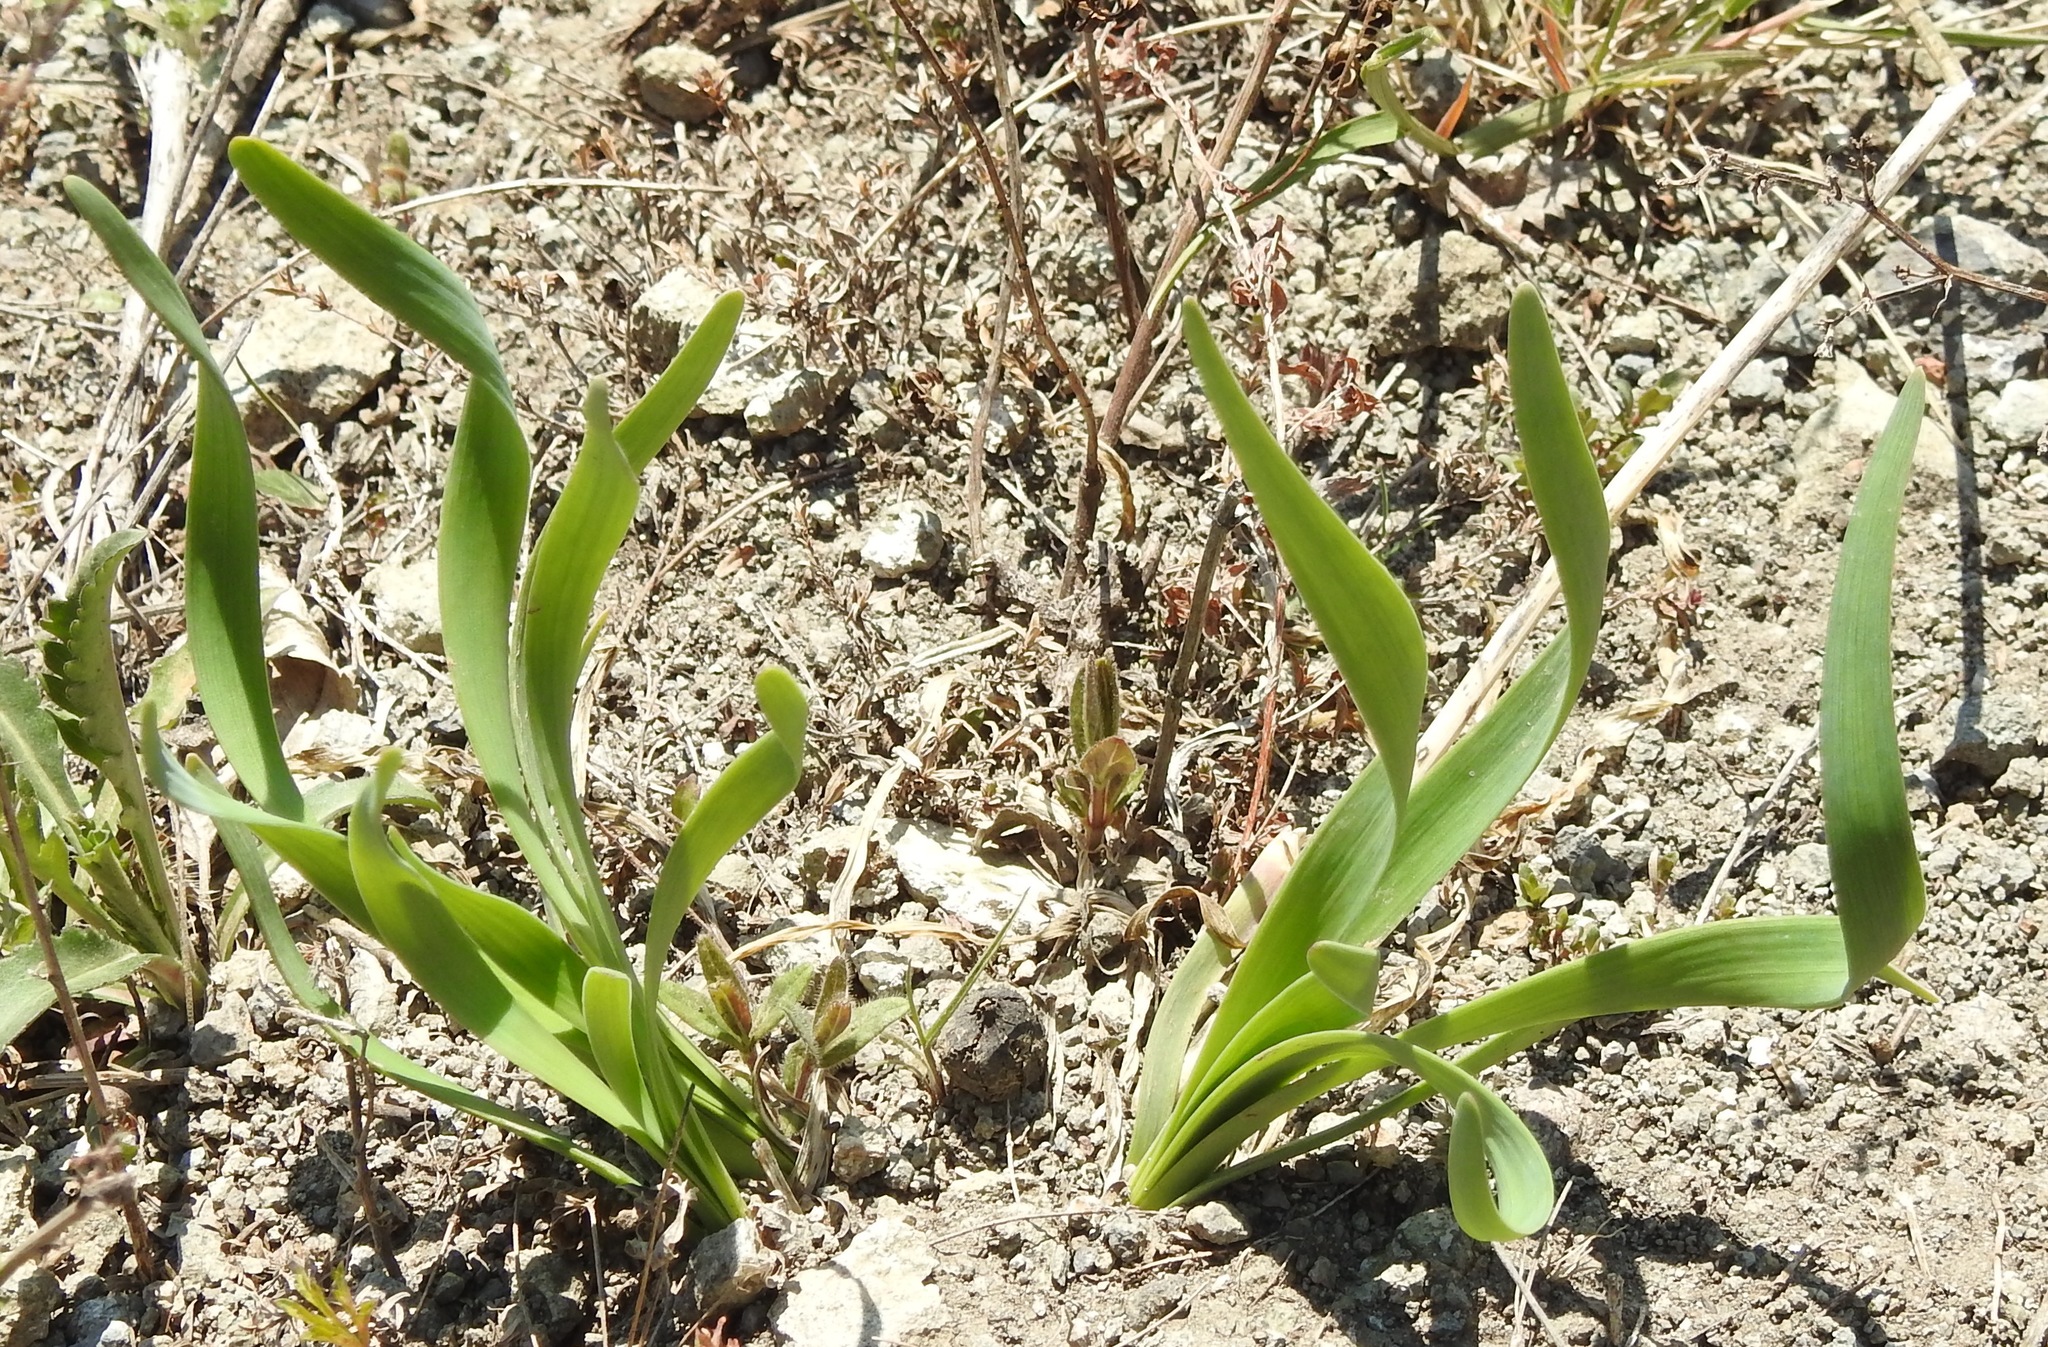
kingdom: Plantae
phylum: Tracheophyta
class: Liliopsida
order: Asparagales
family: Amaryllidaceae
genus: Allium
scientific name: Allium senescens
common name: German garlic
